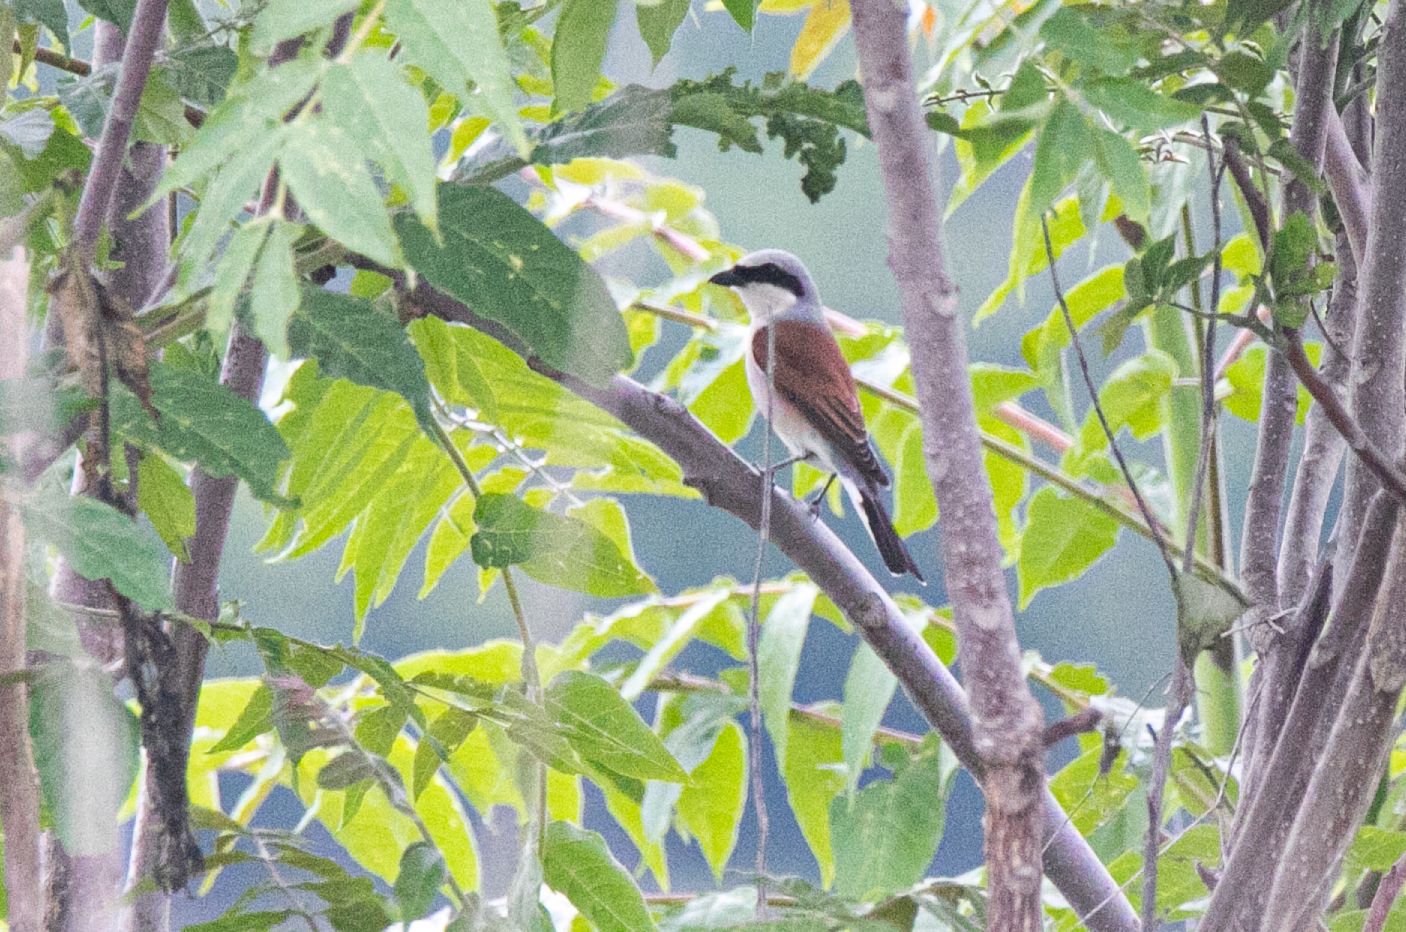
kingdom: Animalia
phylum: Chordata
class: Aves
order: Passeriformes
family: Laniidae
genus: Lanius
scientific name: Lanius collurio
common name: Red-backed shrike
